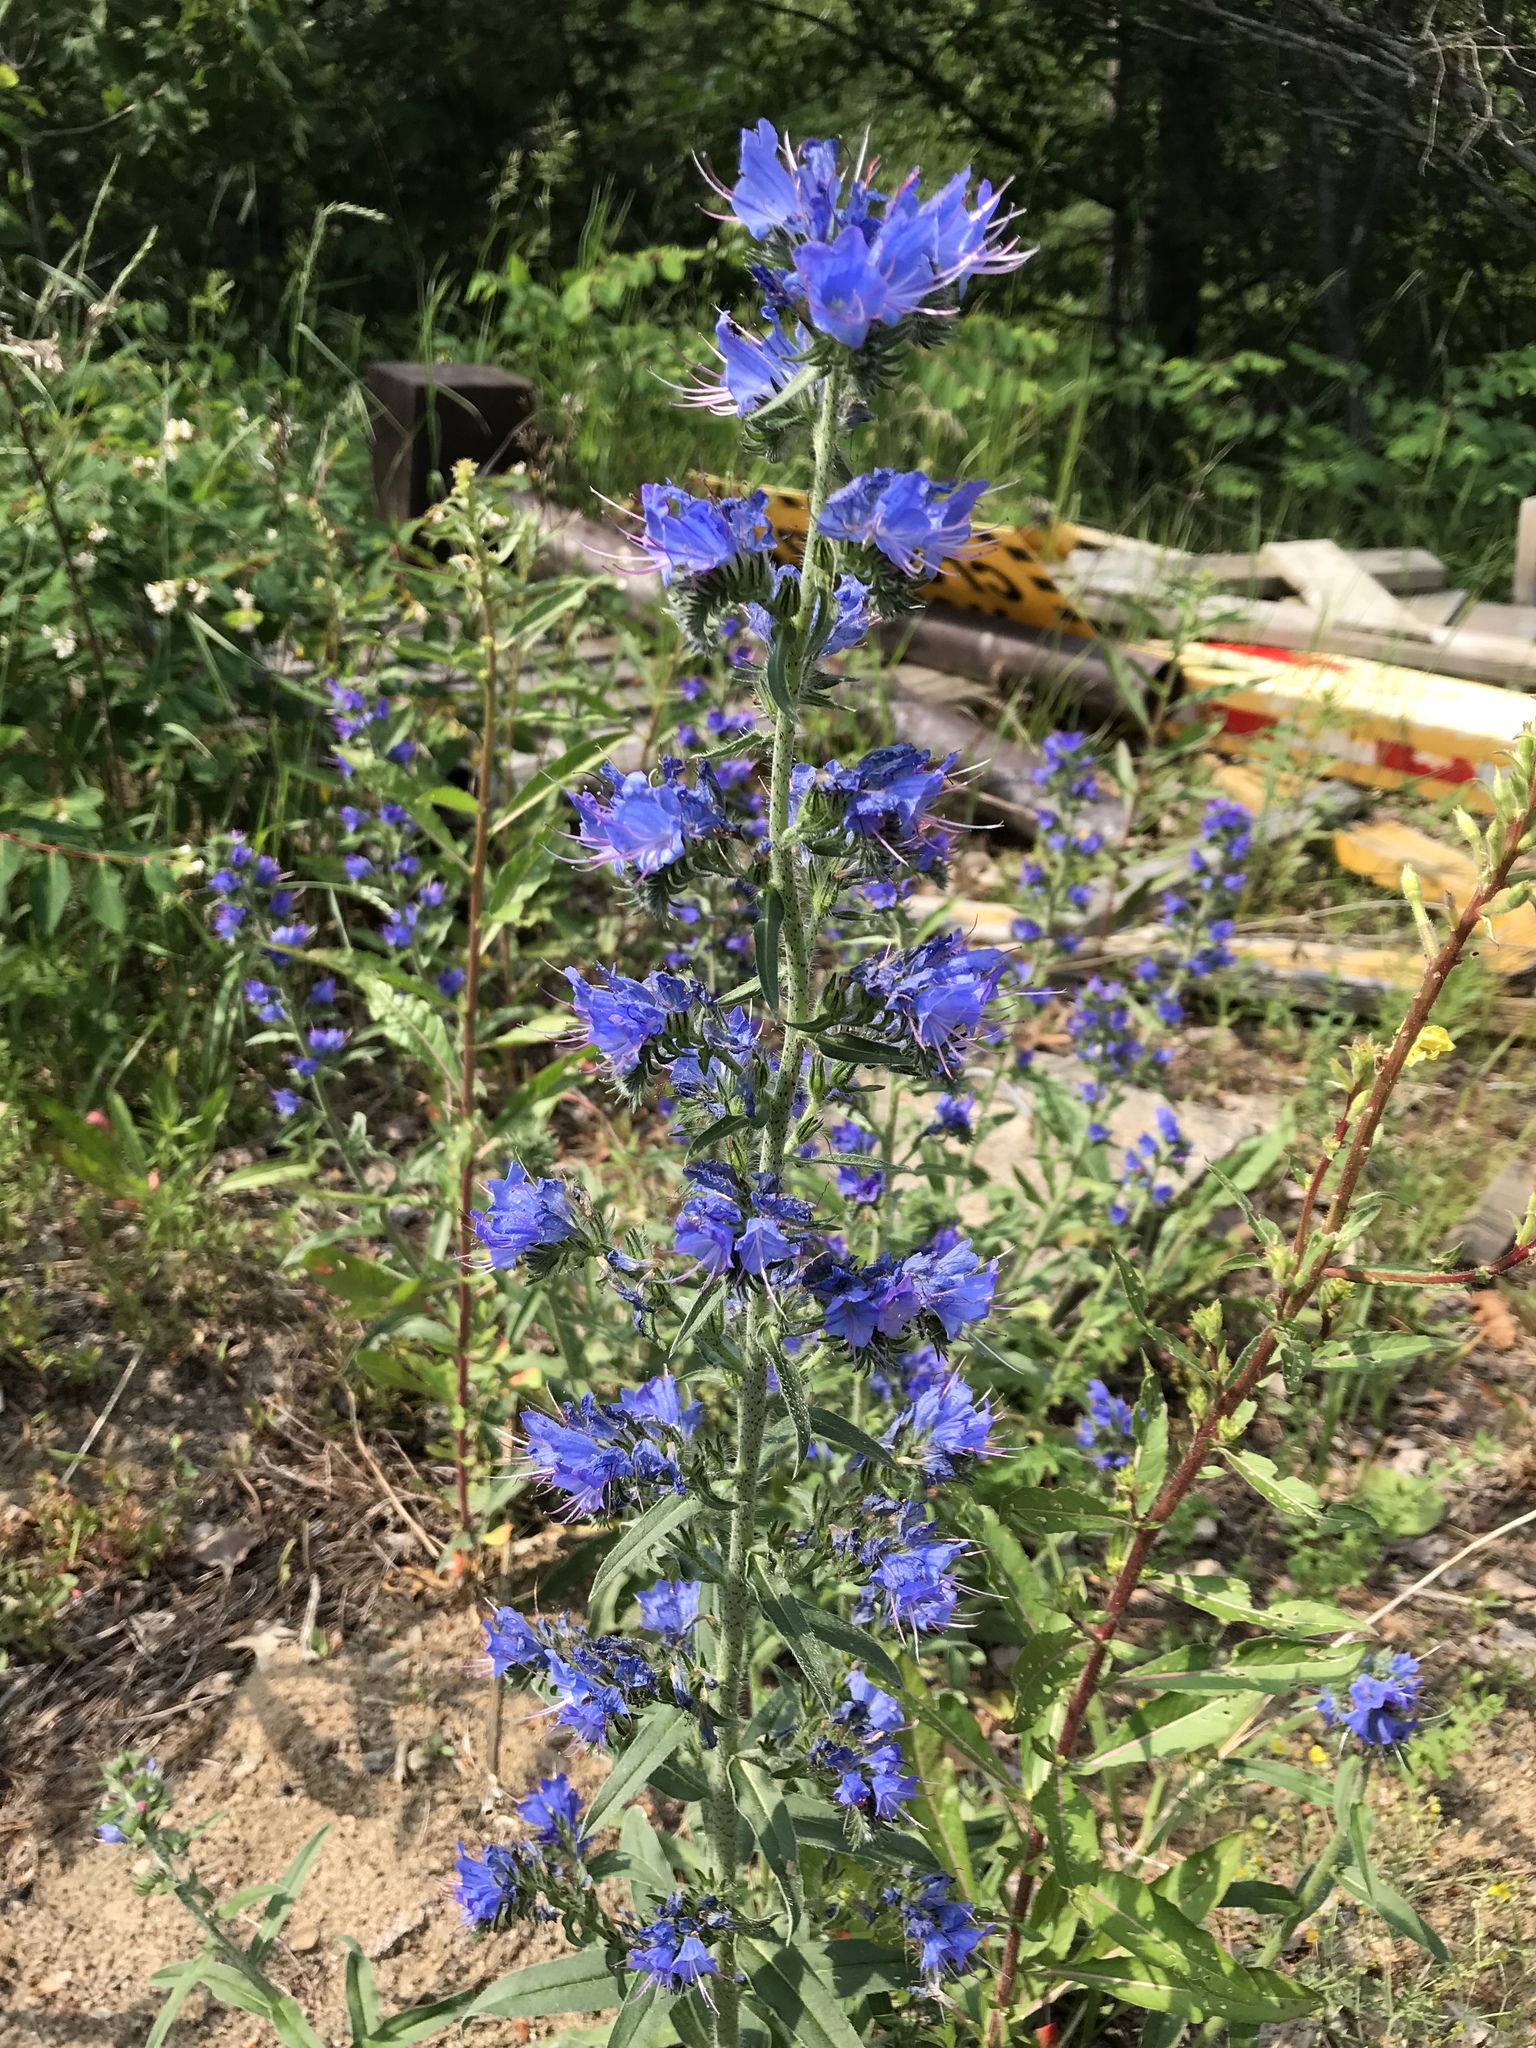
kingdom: Plantae
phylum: Tracheophyta
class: Magnoliopsida
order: Boraginales
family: Boraginaceae
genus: Echium
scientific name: Echium vulgare
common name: Common viper's bugloss
